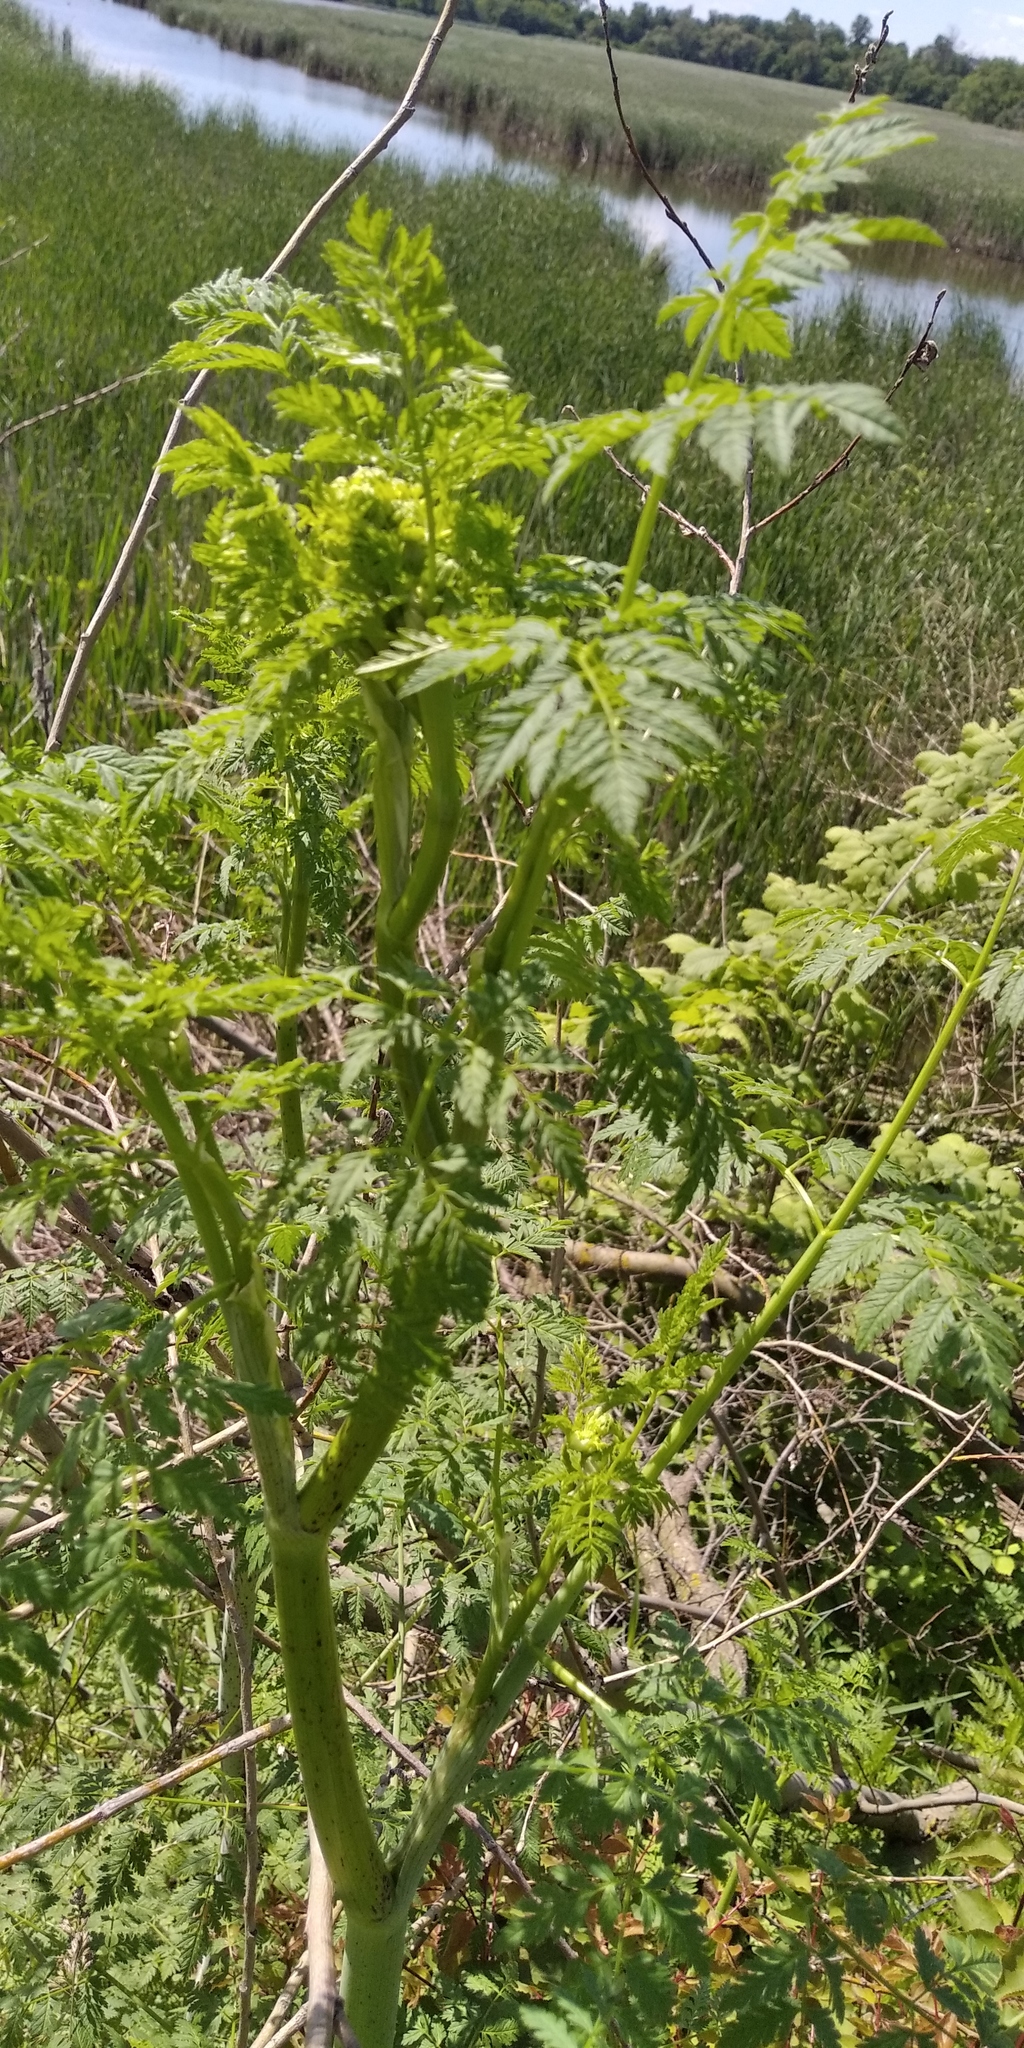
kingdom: Plantae
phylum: Tracheophyta
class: Magnoliopsida
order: Apiales
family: Apiaceae
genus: Conium
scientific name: Conium maculatum
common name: Hemlock
